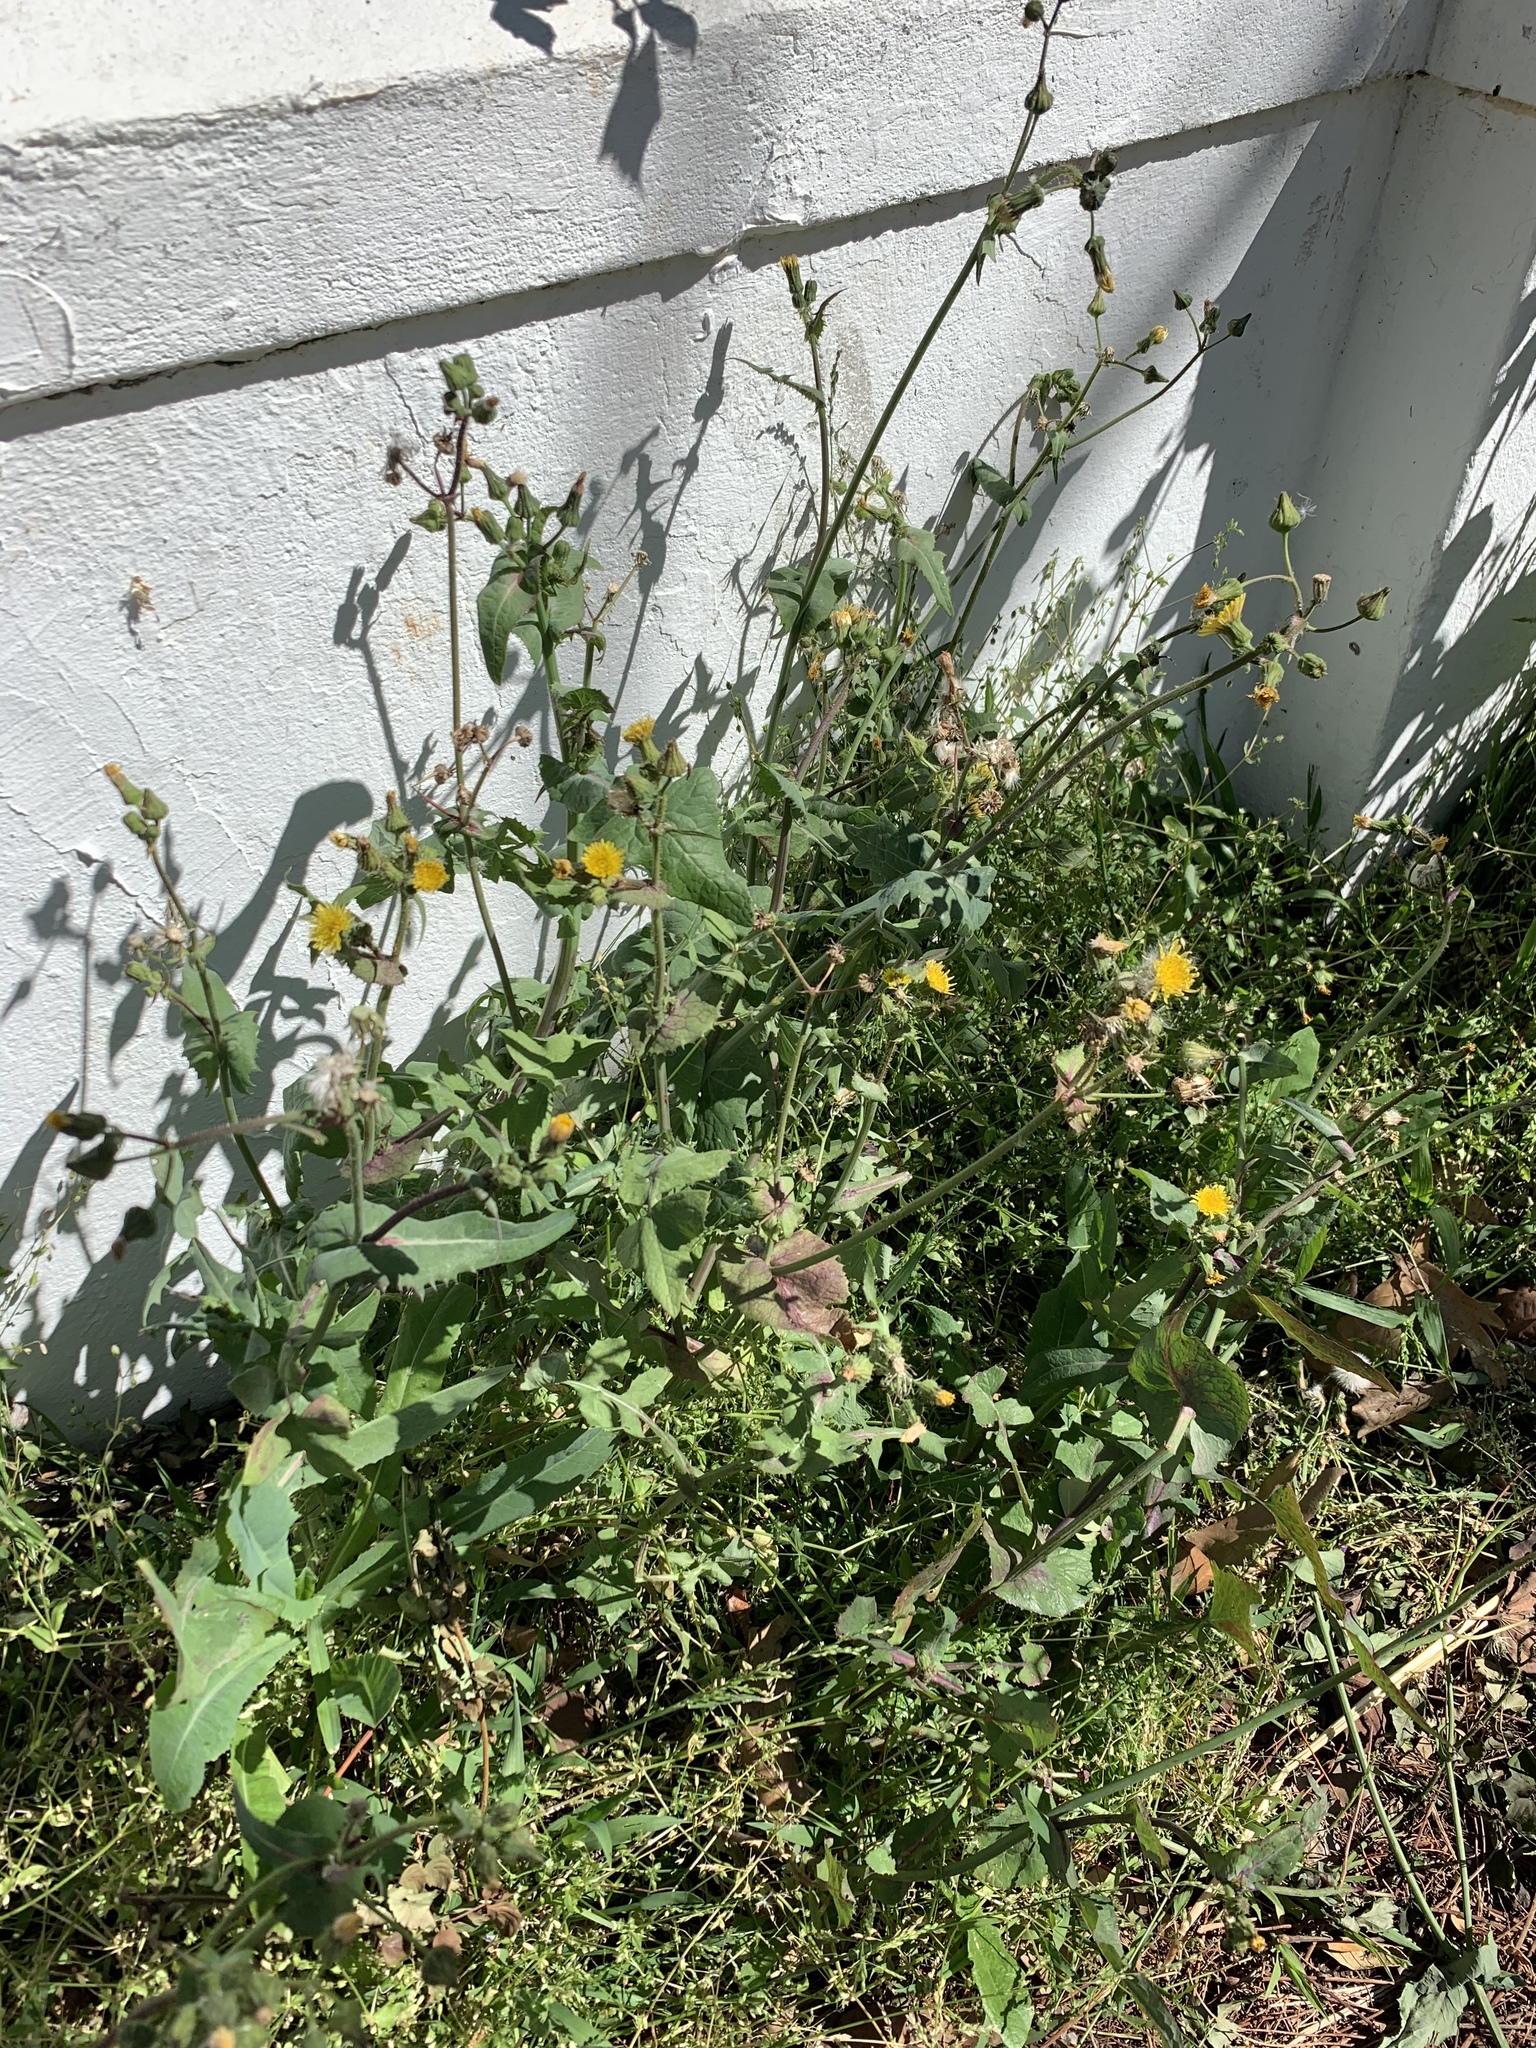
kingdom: Plantae
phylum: Tracheophyta
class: Magnoliopsida
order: Asterales
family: Asteraceae
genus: Sonchus
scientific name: Sonchus oleraceus
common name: Common sowthistle
